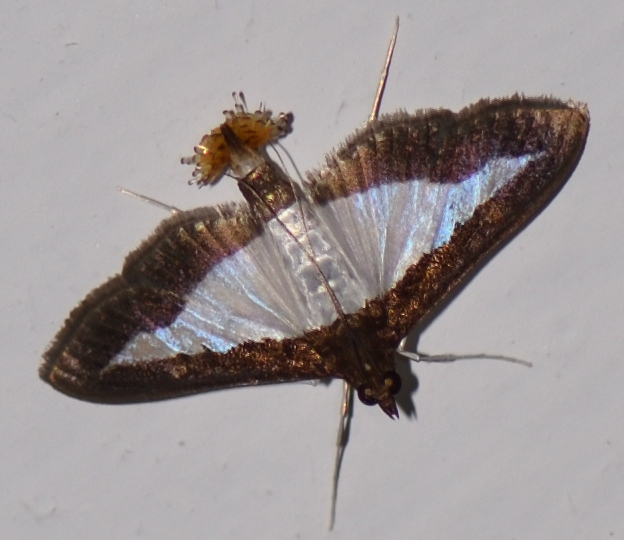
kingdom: Animalia
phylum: Arthropoda
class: Insecta
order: Lepidoptera
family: Crambidae
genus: Diaphania
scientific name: Diaphania indica
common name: Cucumber moth
